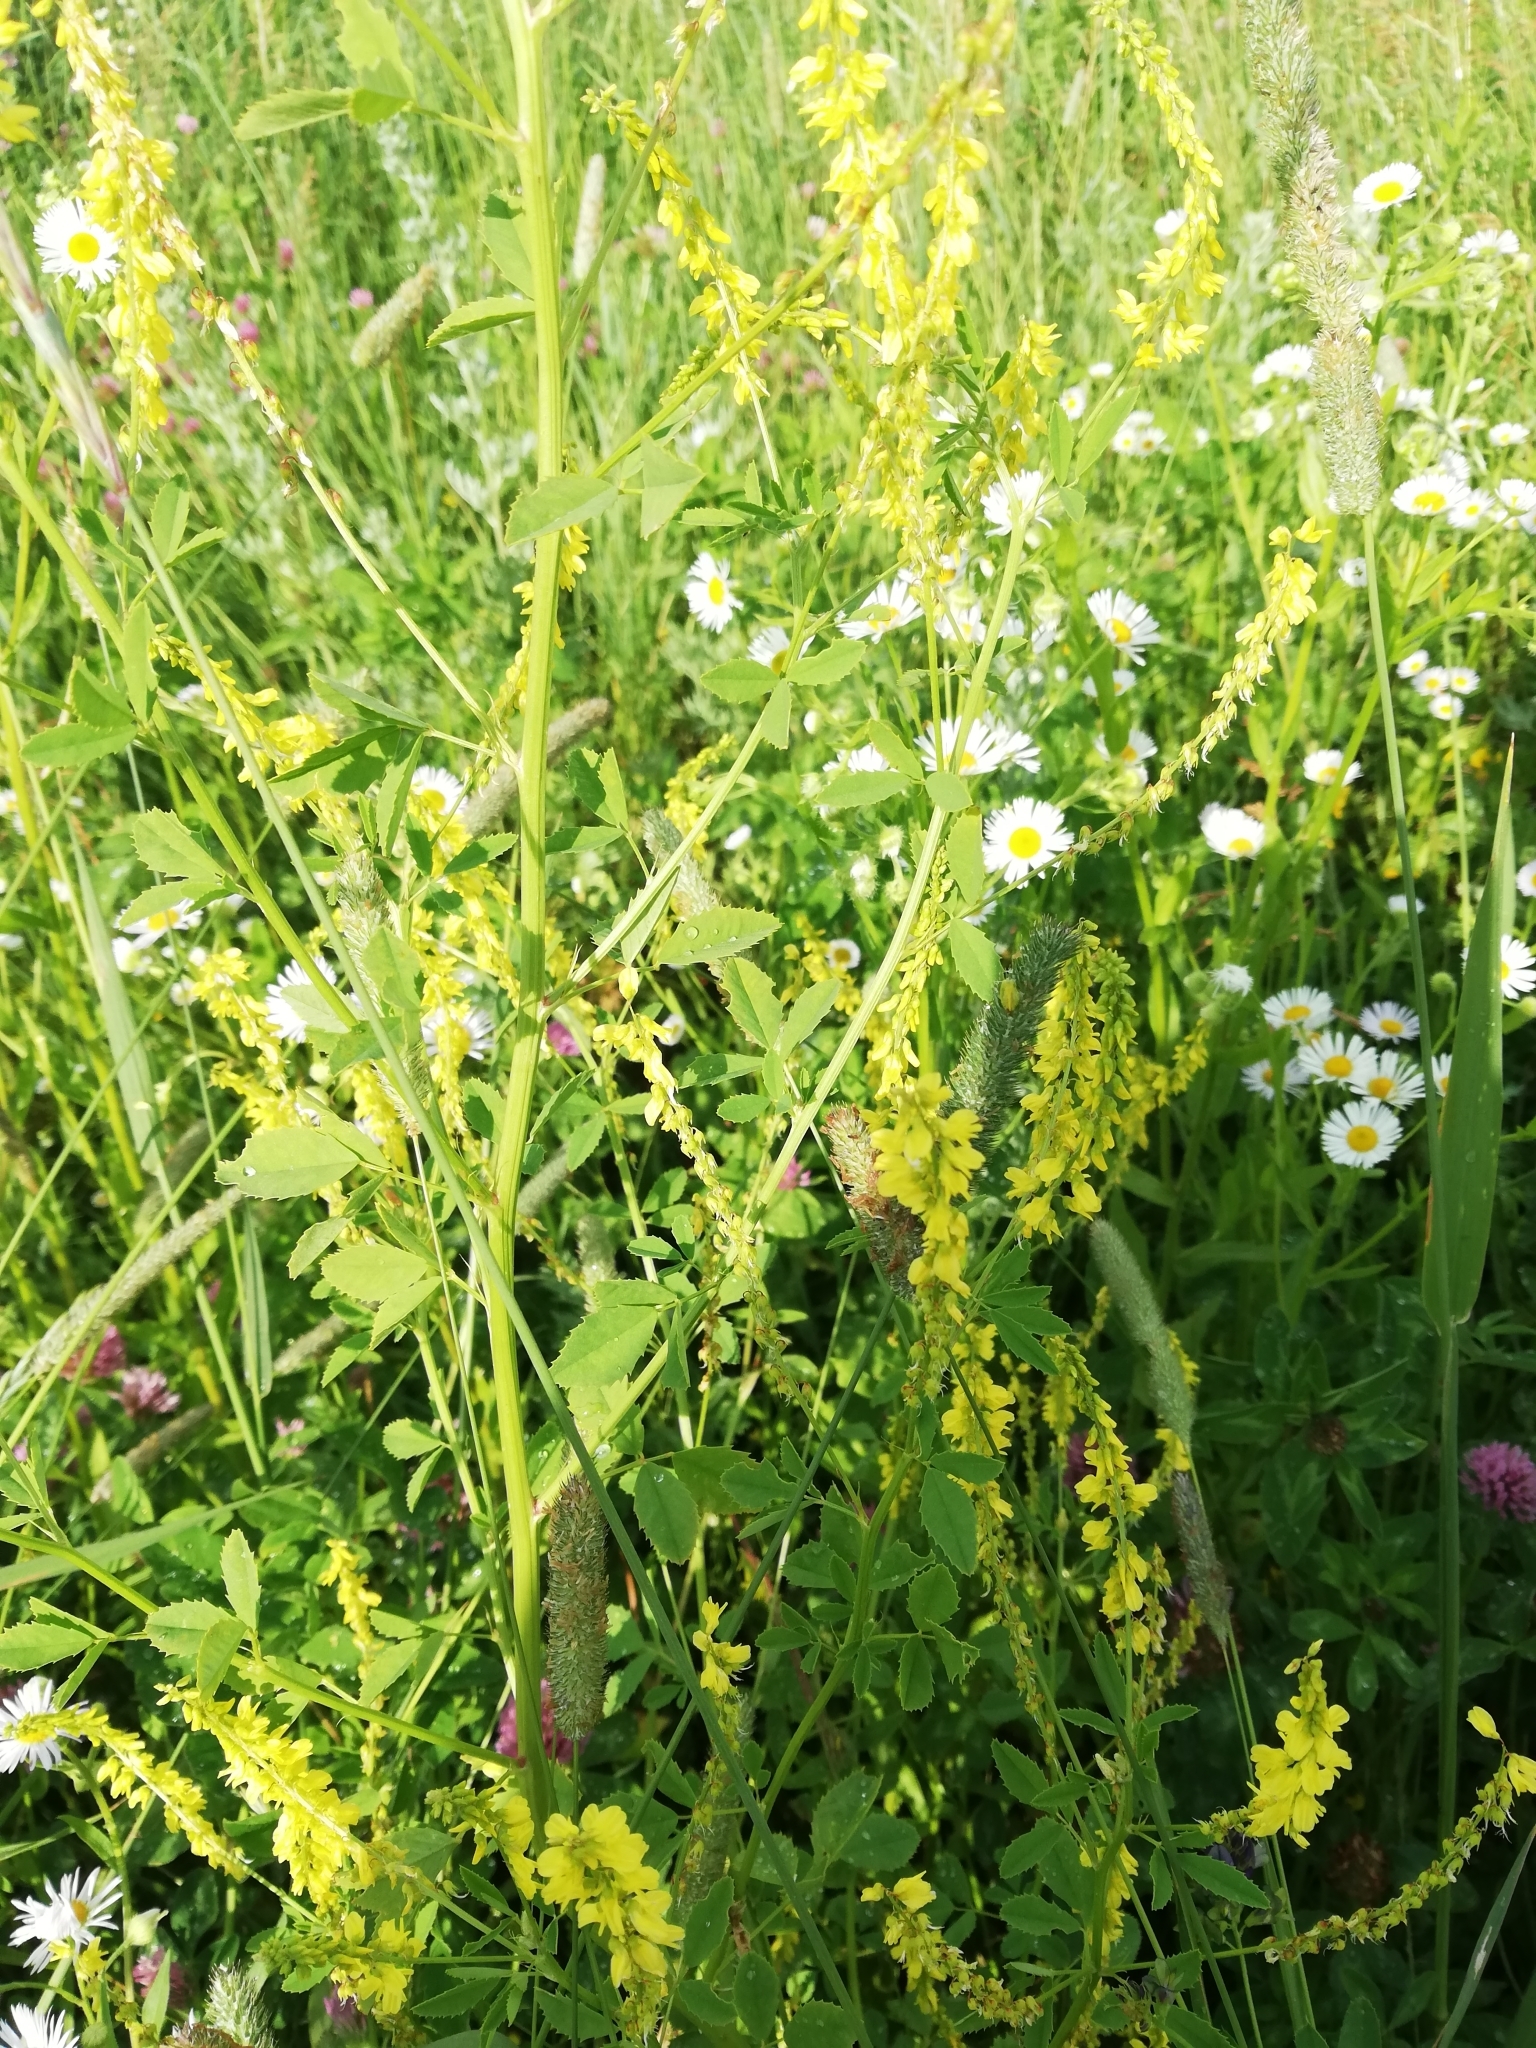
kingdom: Plantae
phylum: Tracheophyta
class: Magnoliopsida
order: Fabales
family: Fabaceae
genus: Melilotus
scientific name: Melilotus officinalis
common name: Sweetclover
